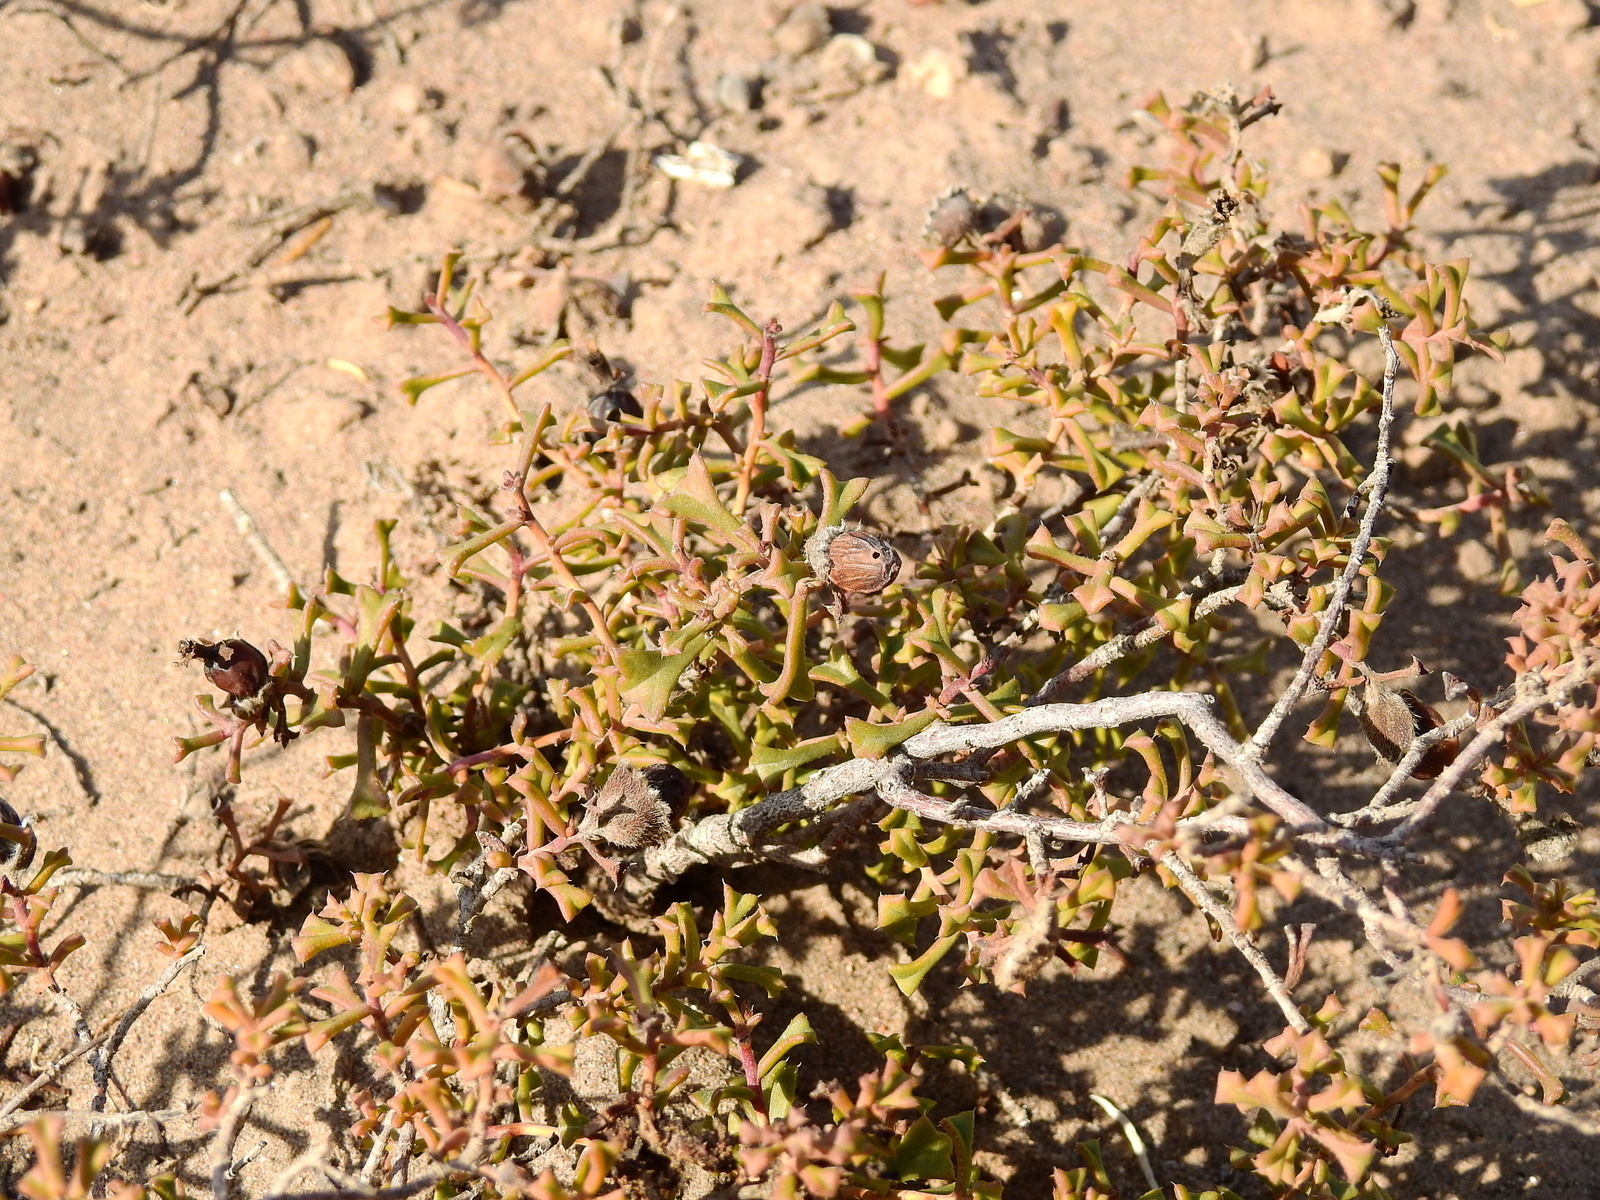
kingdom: Plantae
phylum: Tracheophyta
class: Magnoliopsida
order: Boraginales
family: Ehretiaceae
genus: Ehretia
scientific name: Ehretia cortesia
